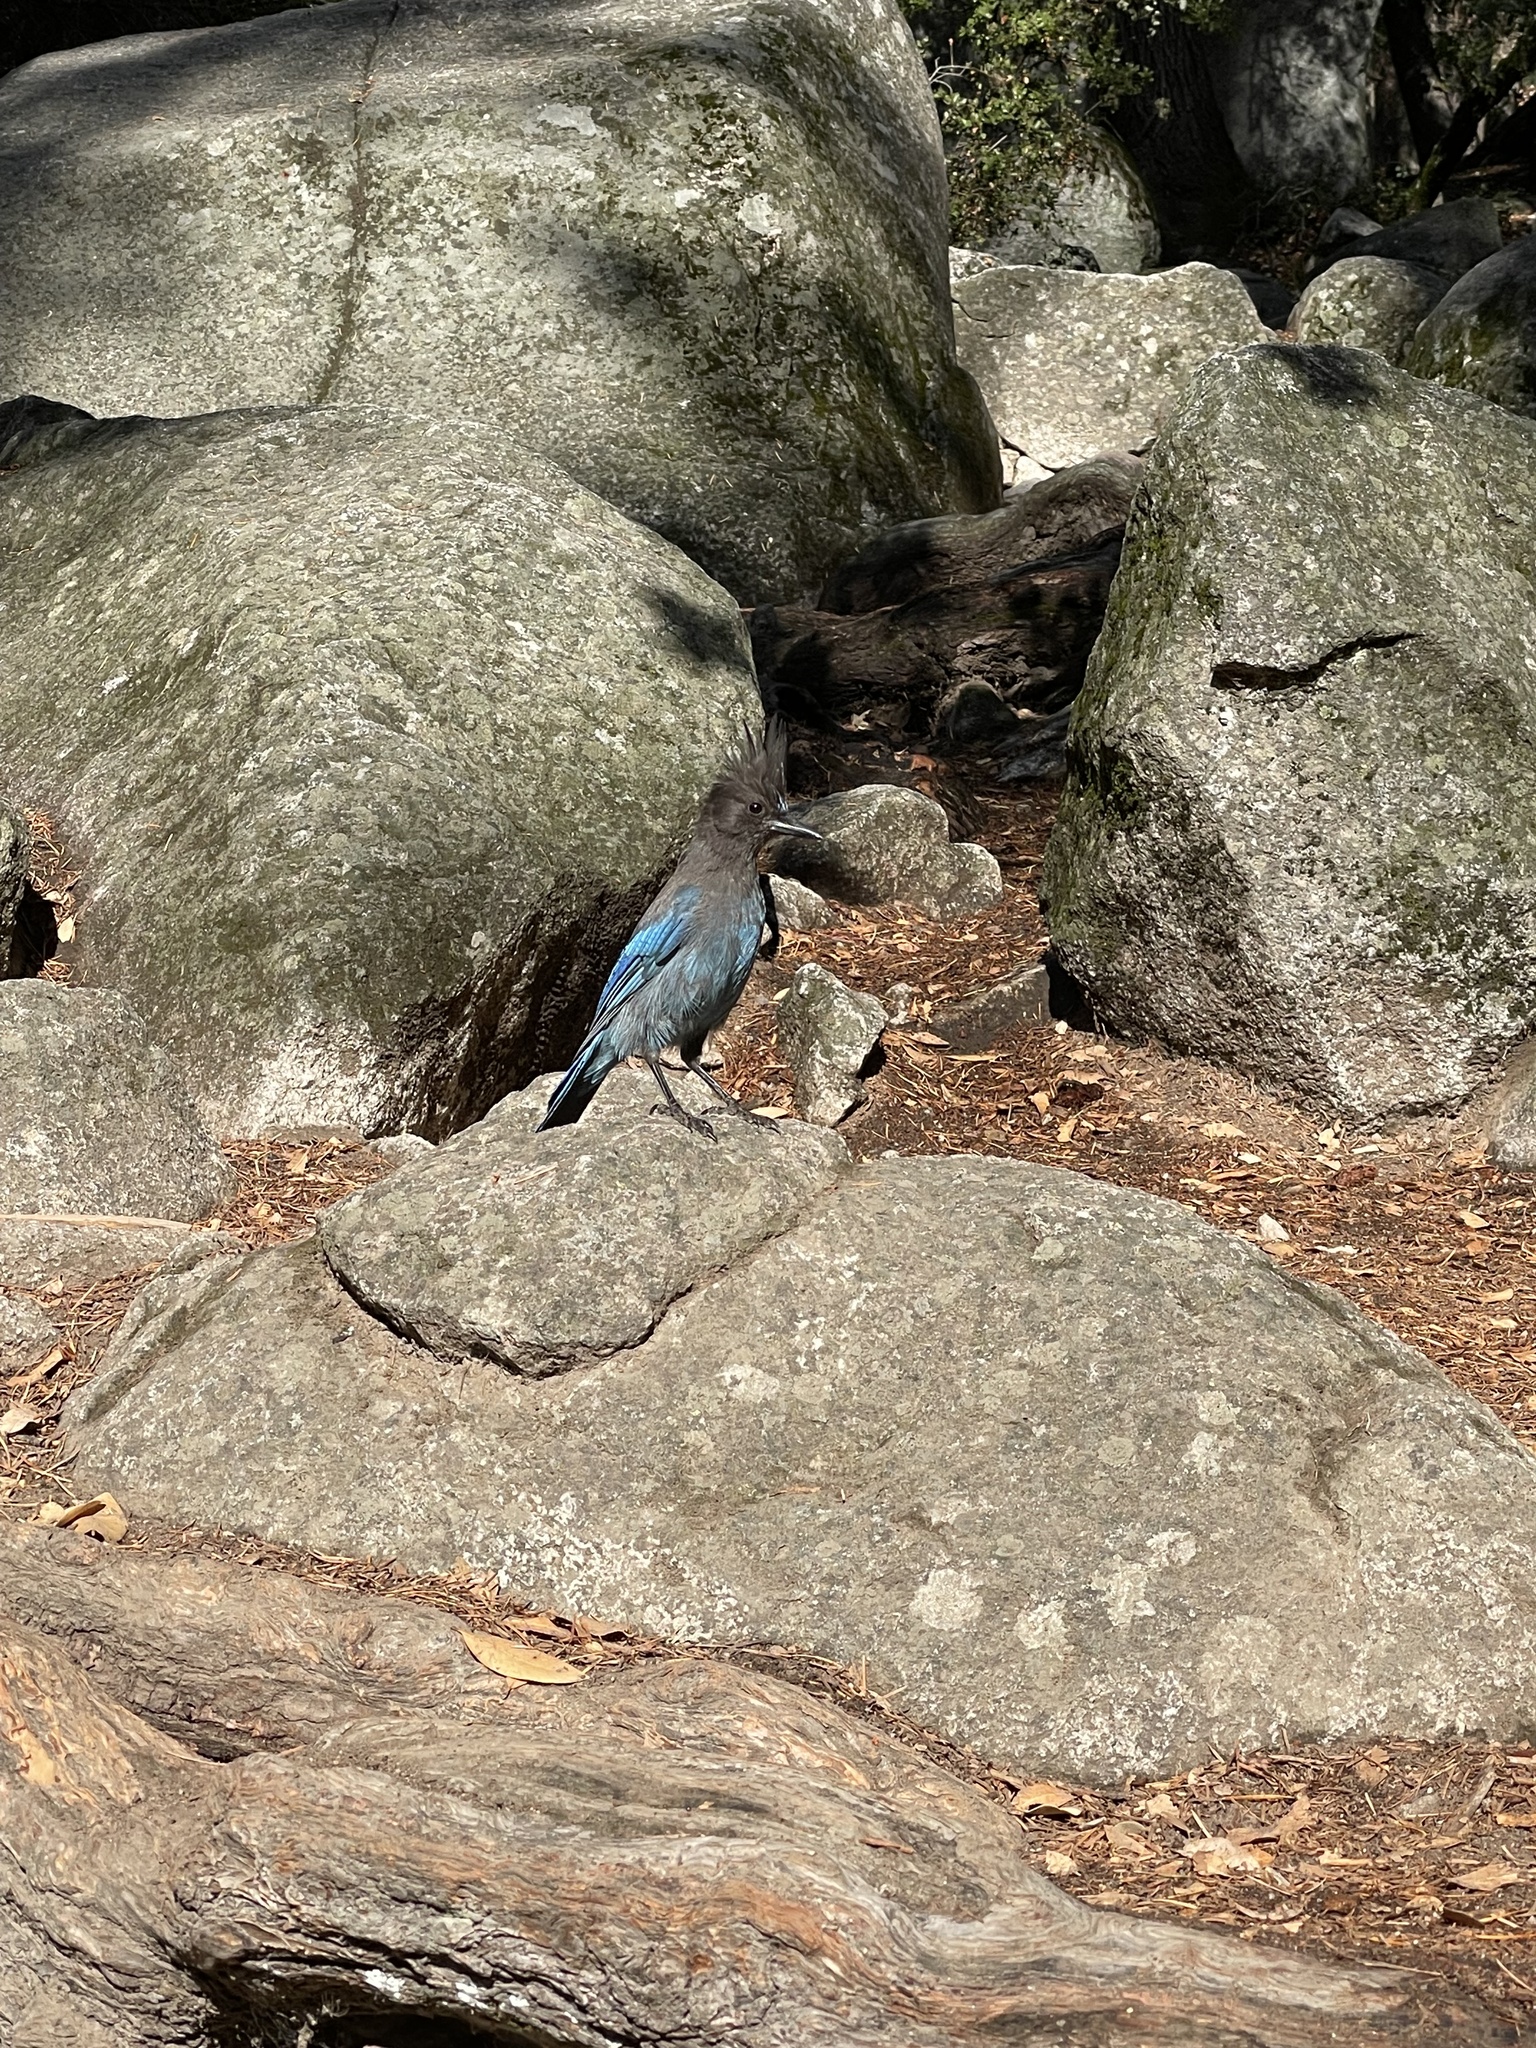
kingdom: Animalia
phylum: Chordata
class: Aves
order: Passeriformes
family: Corvidae
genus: Cyanocitta
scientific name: Cyanocitta stelleri
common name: Steller's jay
